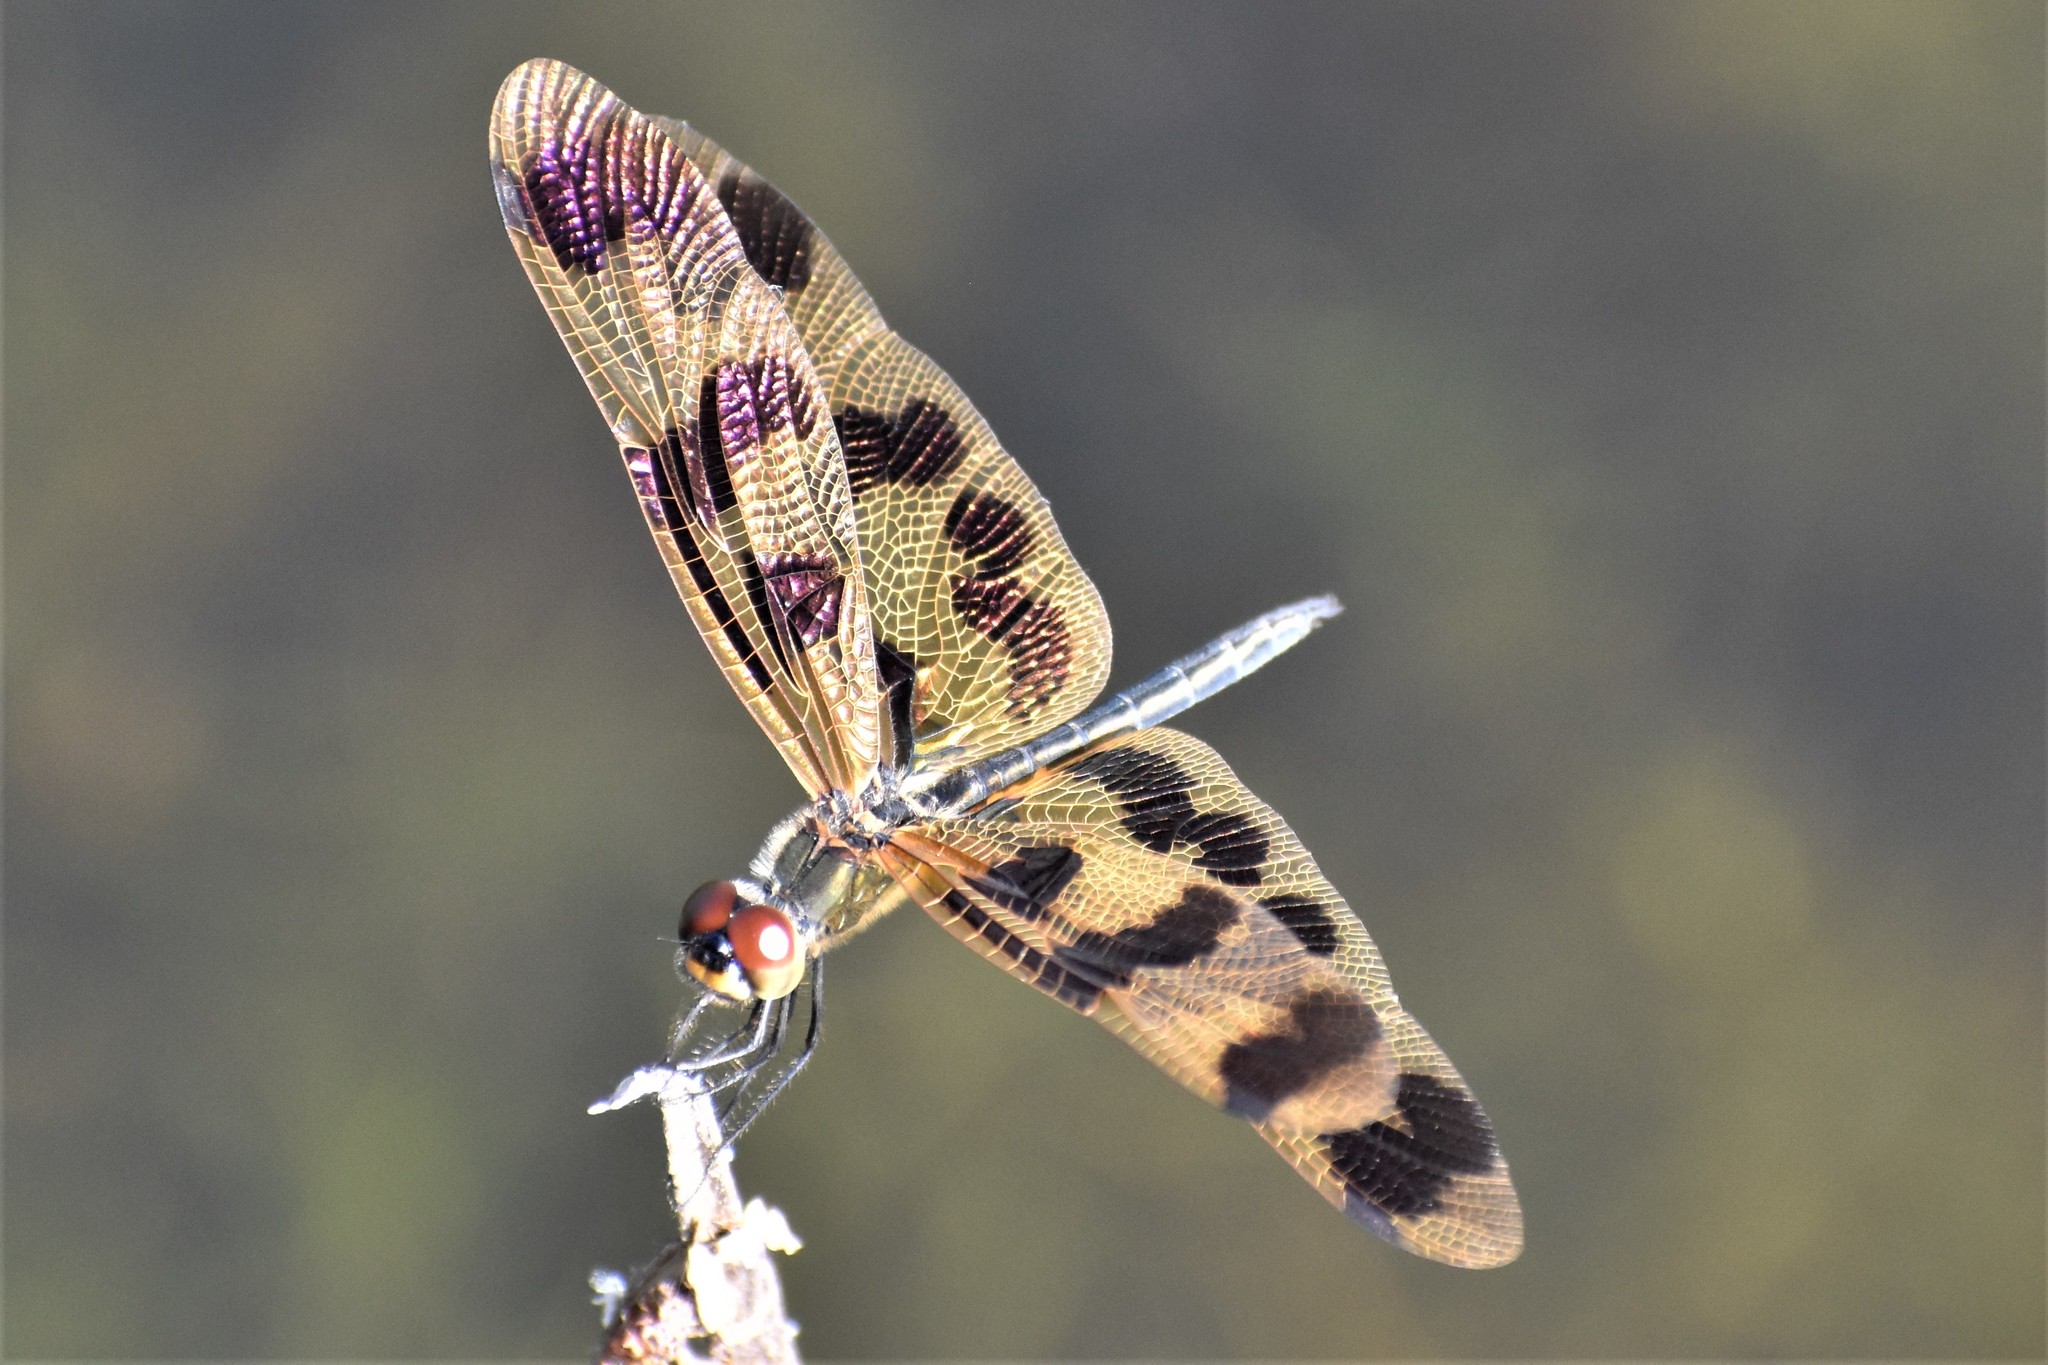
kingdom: Animalia
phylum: Arthropoda
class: Insecta
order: Odonata
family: Libellulidae
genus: Rhyothemis
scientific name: Rhyothemis graphiptera
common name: Graphic flutterer
